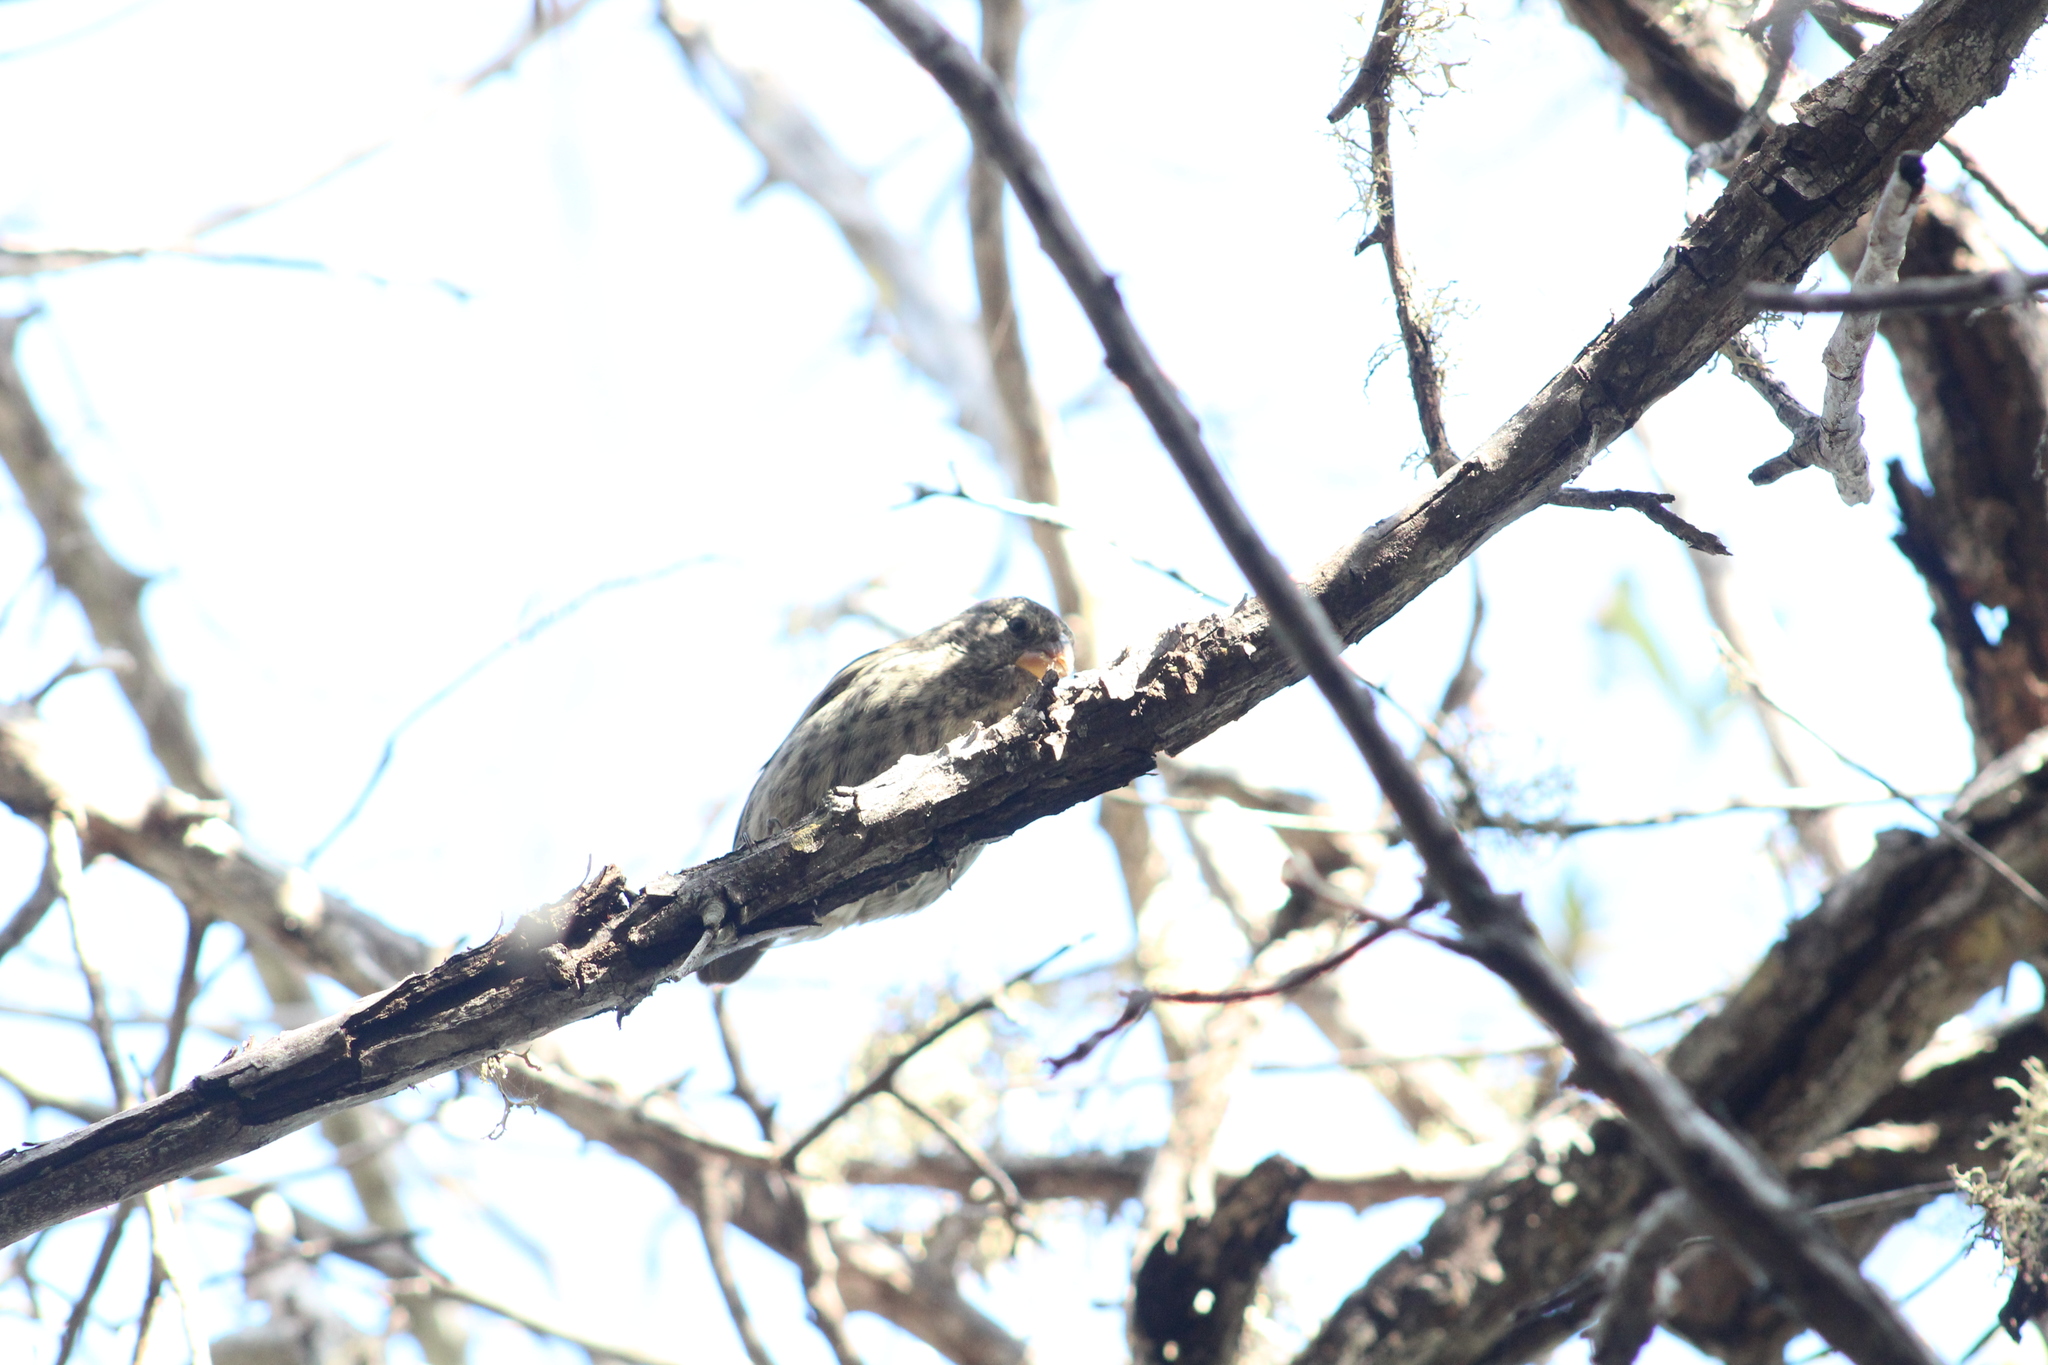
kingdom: Animalia
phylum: Chordata
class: Aves
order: Passeriformes
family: Thraupidae
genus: Geospiza
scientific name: Geospiza fortis
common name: Medium ground finch
